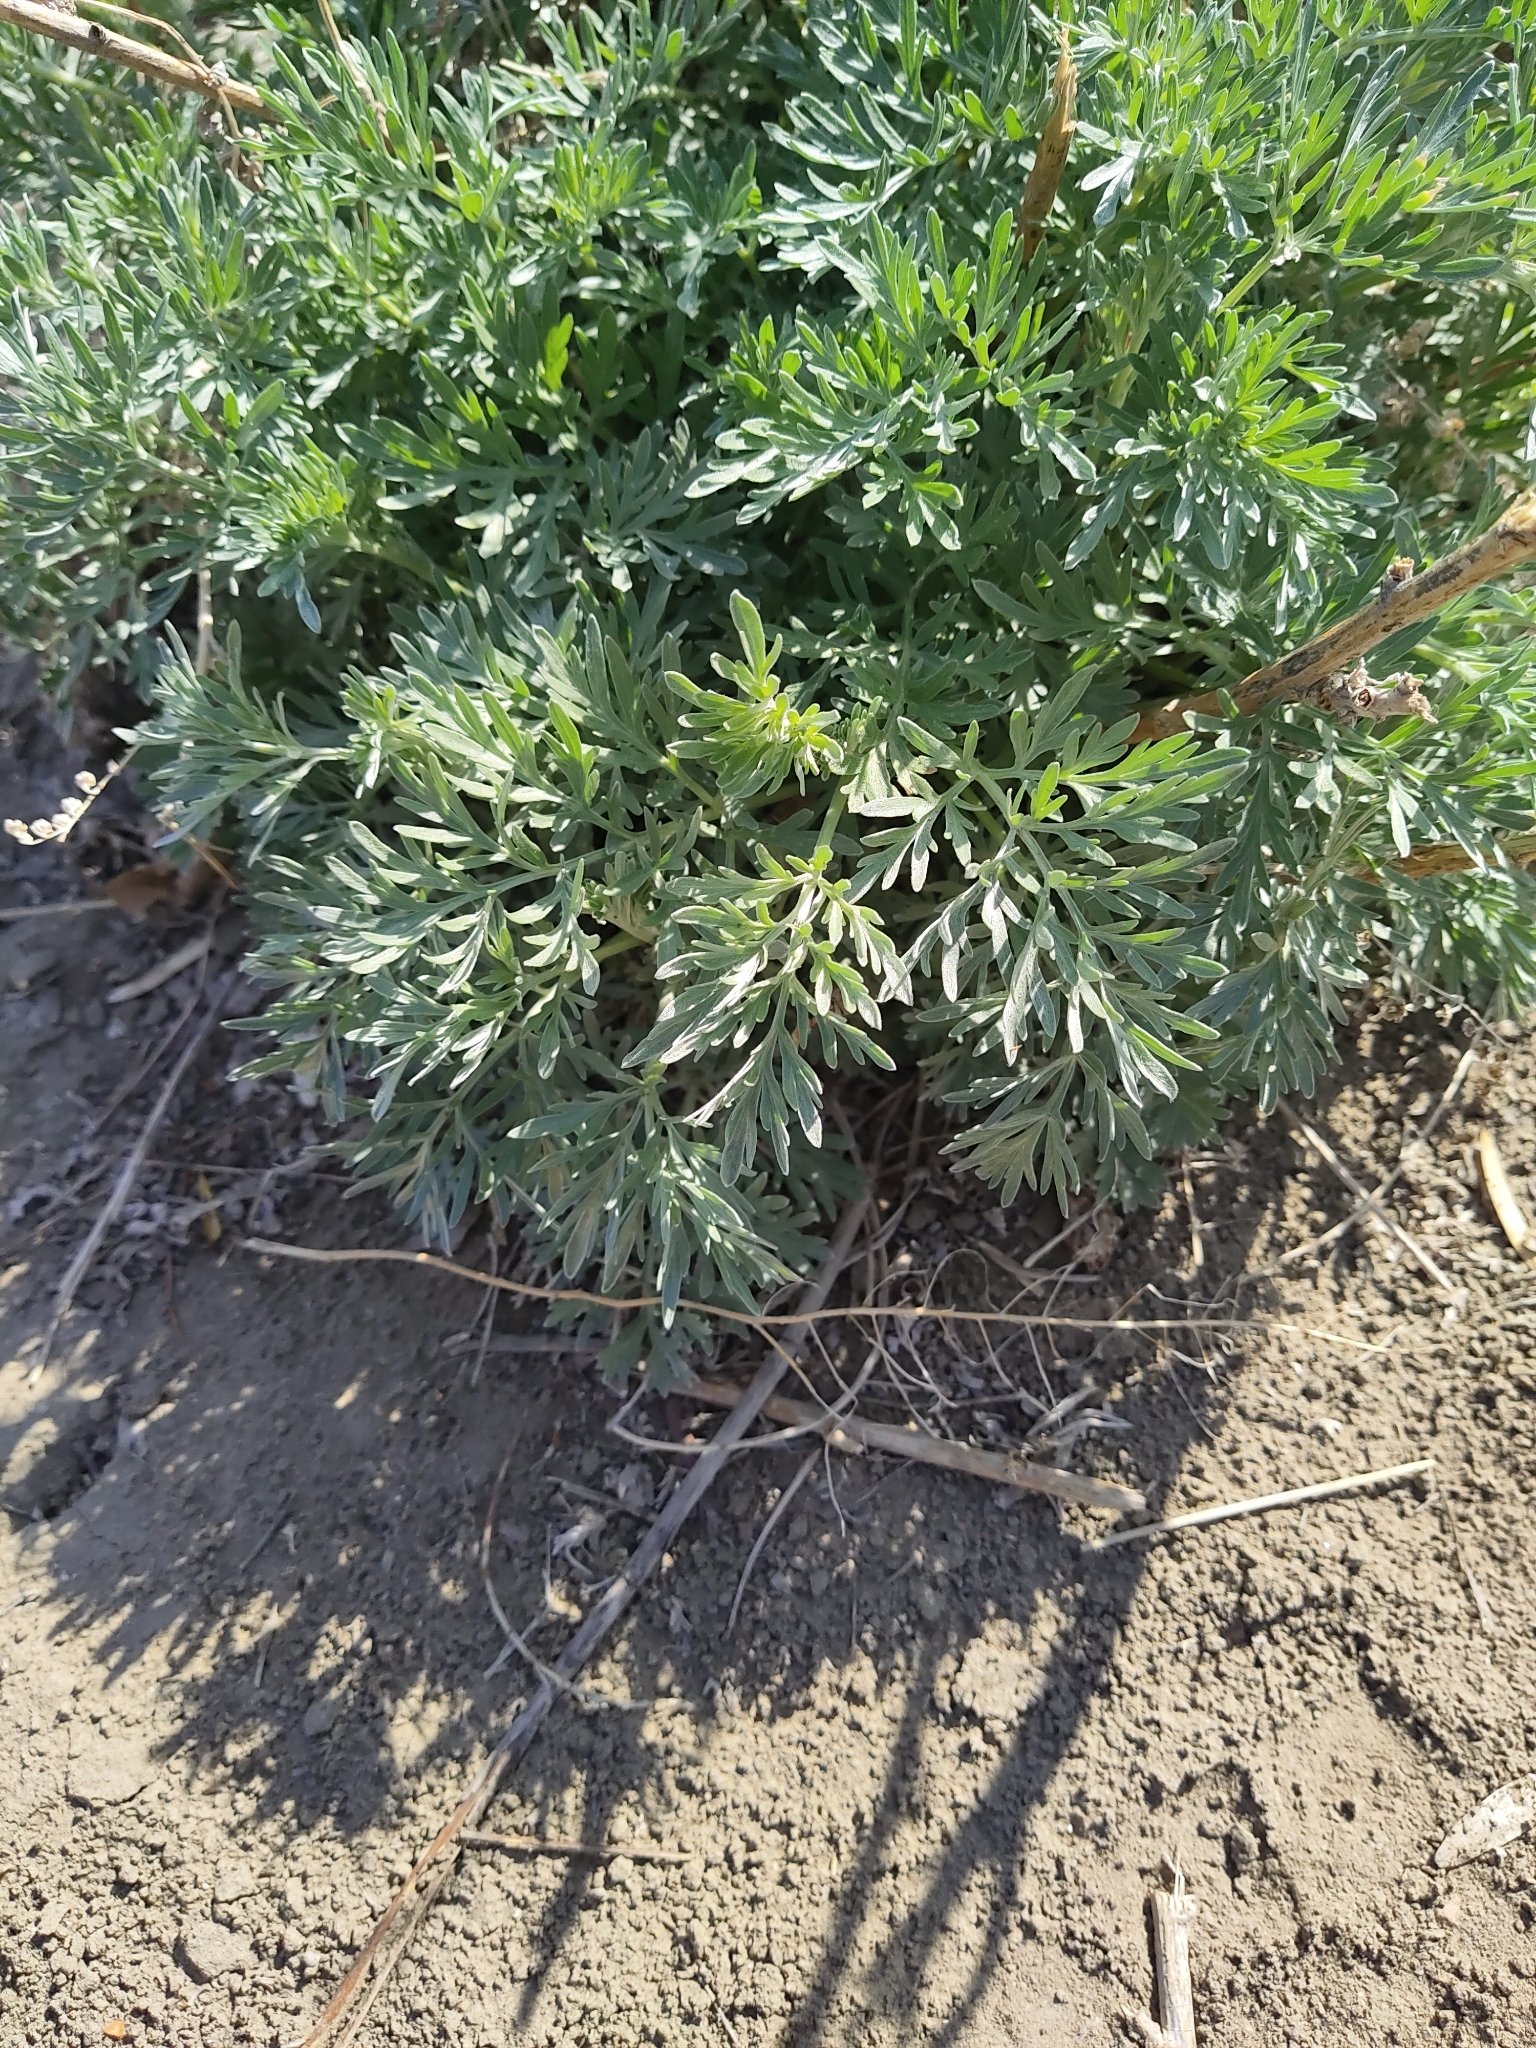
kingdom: Plantae
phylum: Tracheophyta
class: Magnoliopsida
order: Asterales
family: Asteraceae
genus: Artemisia
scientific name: Artemisia absinthium
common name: Wormwood
